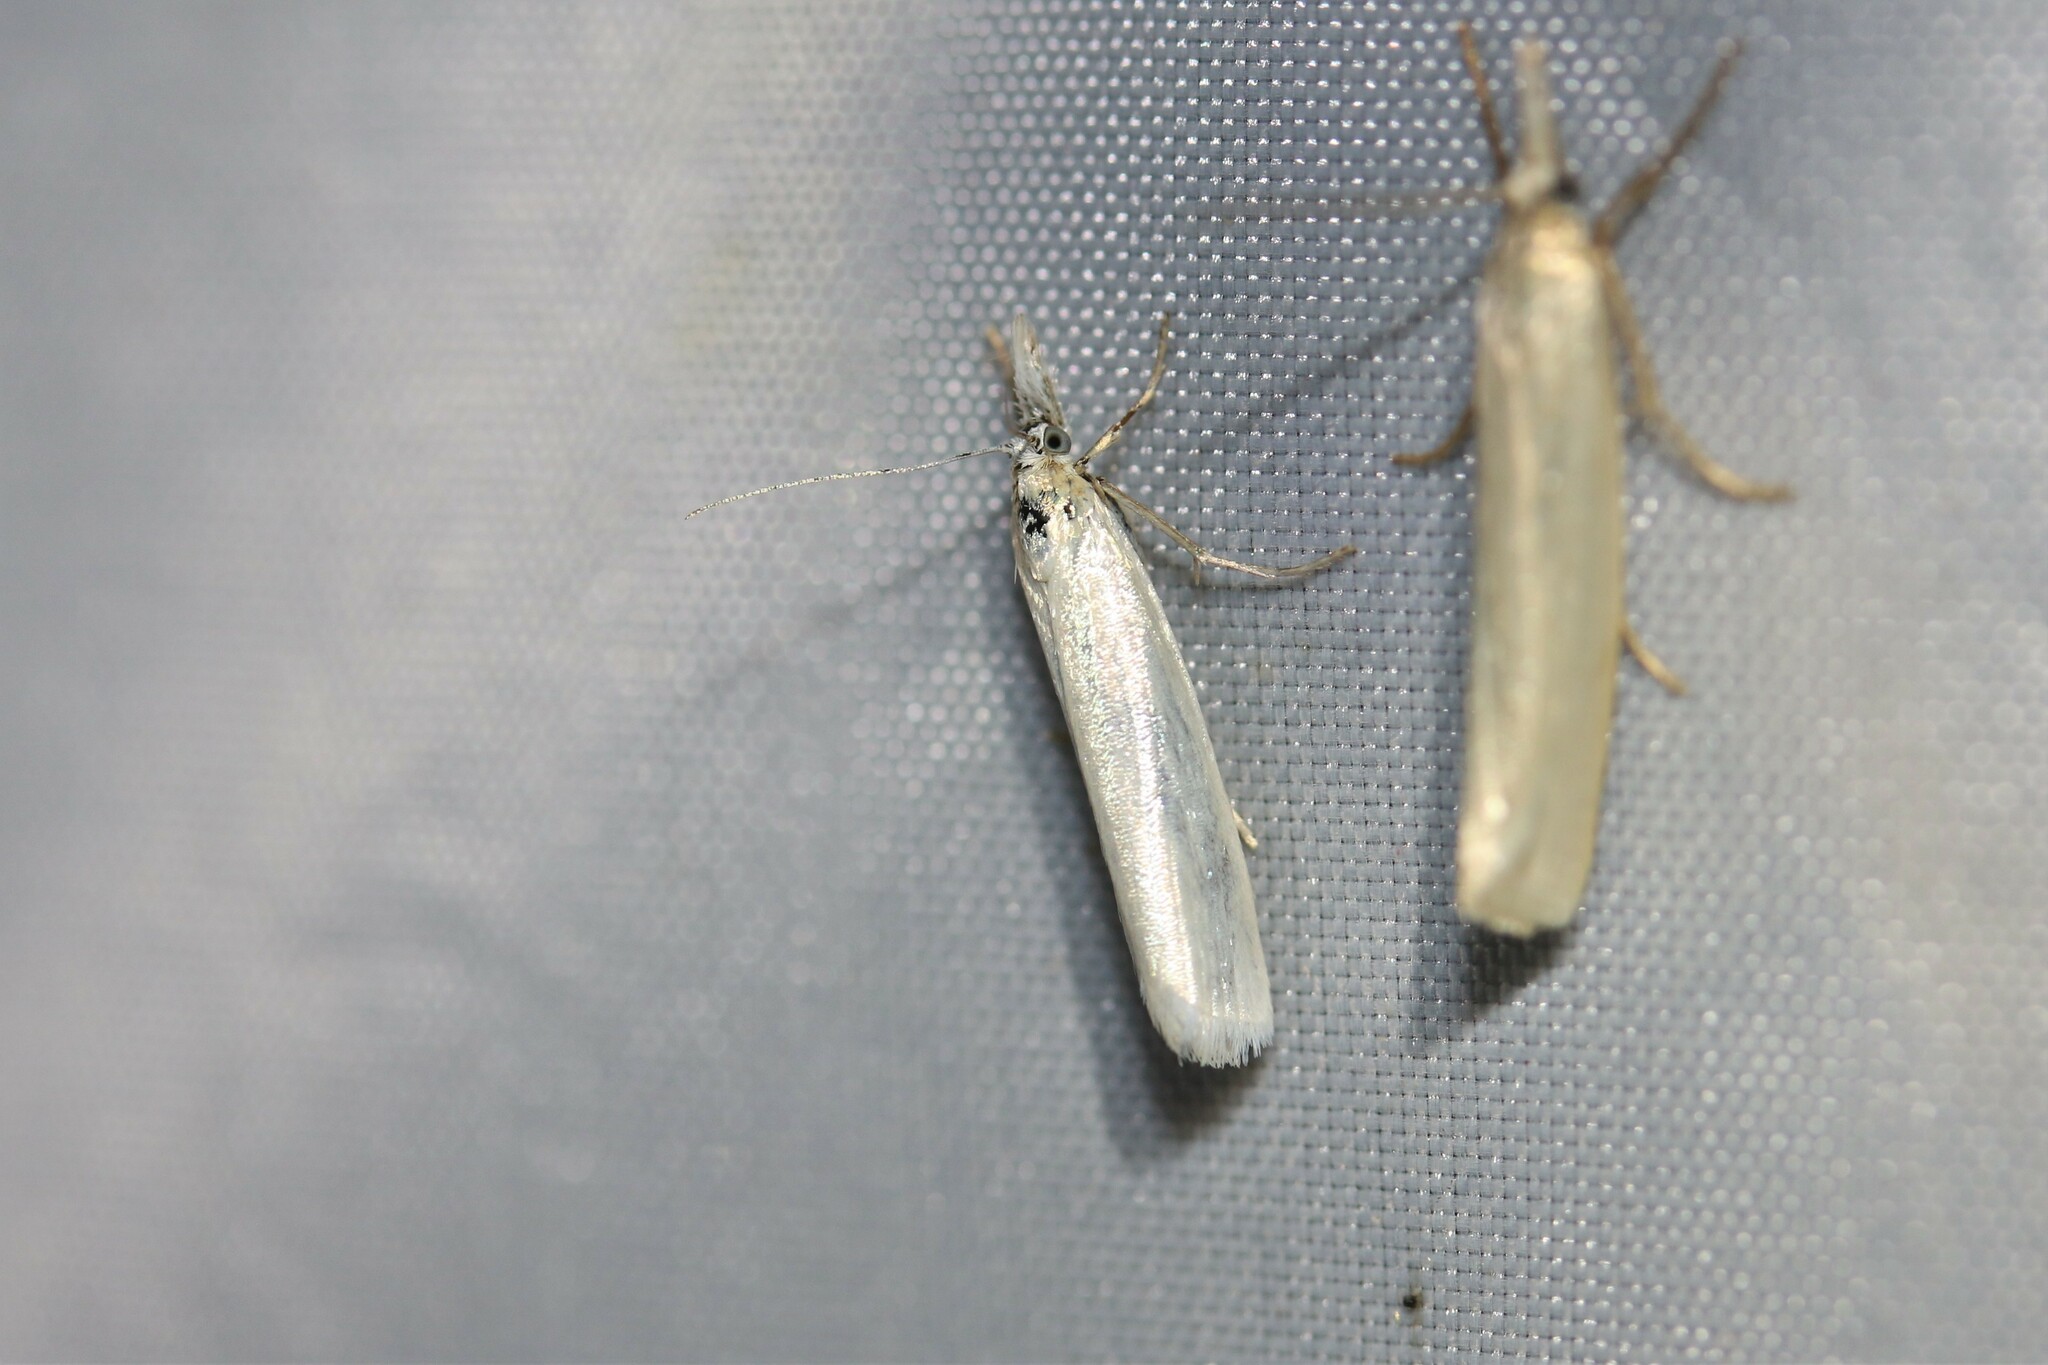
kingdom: Animalia
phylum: Arthropoda
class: Insecta
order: Lepidoptera
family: Crambidae
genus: Crambus
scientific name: Crambus perlellus
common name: Yellow satin veneer
